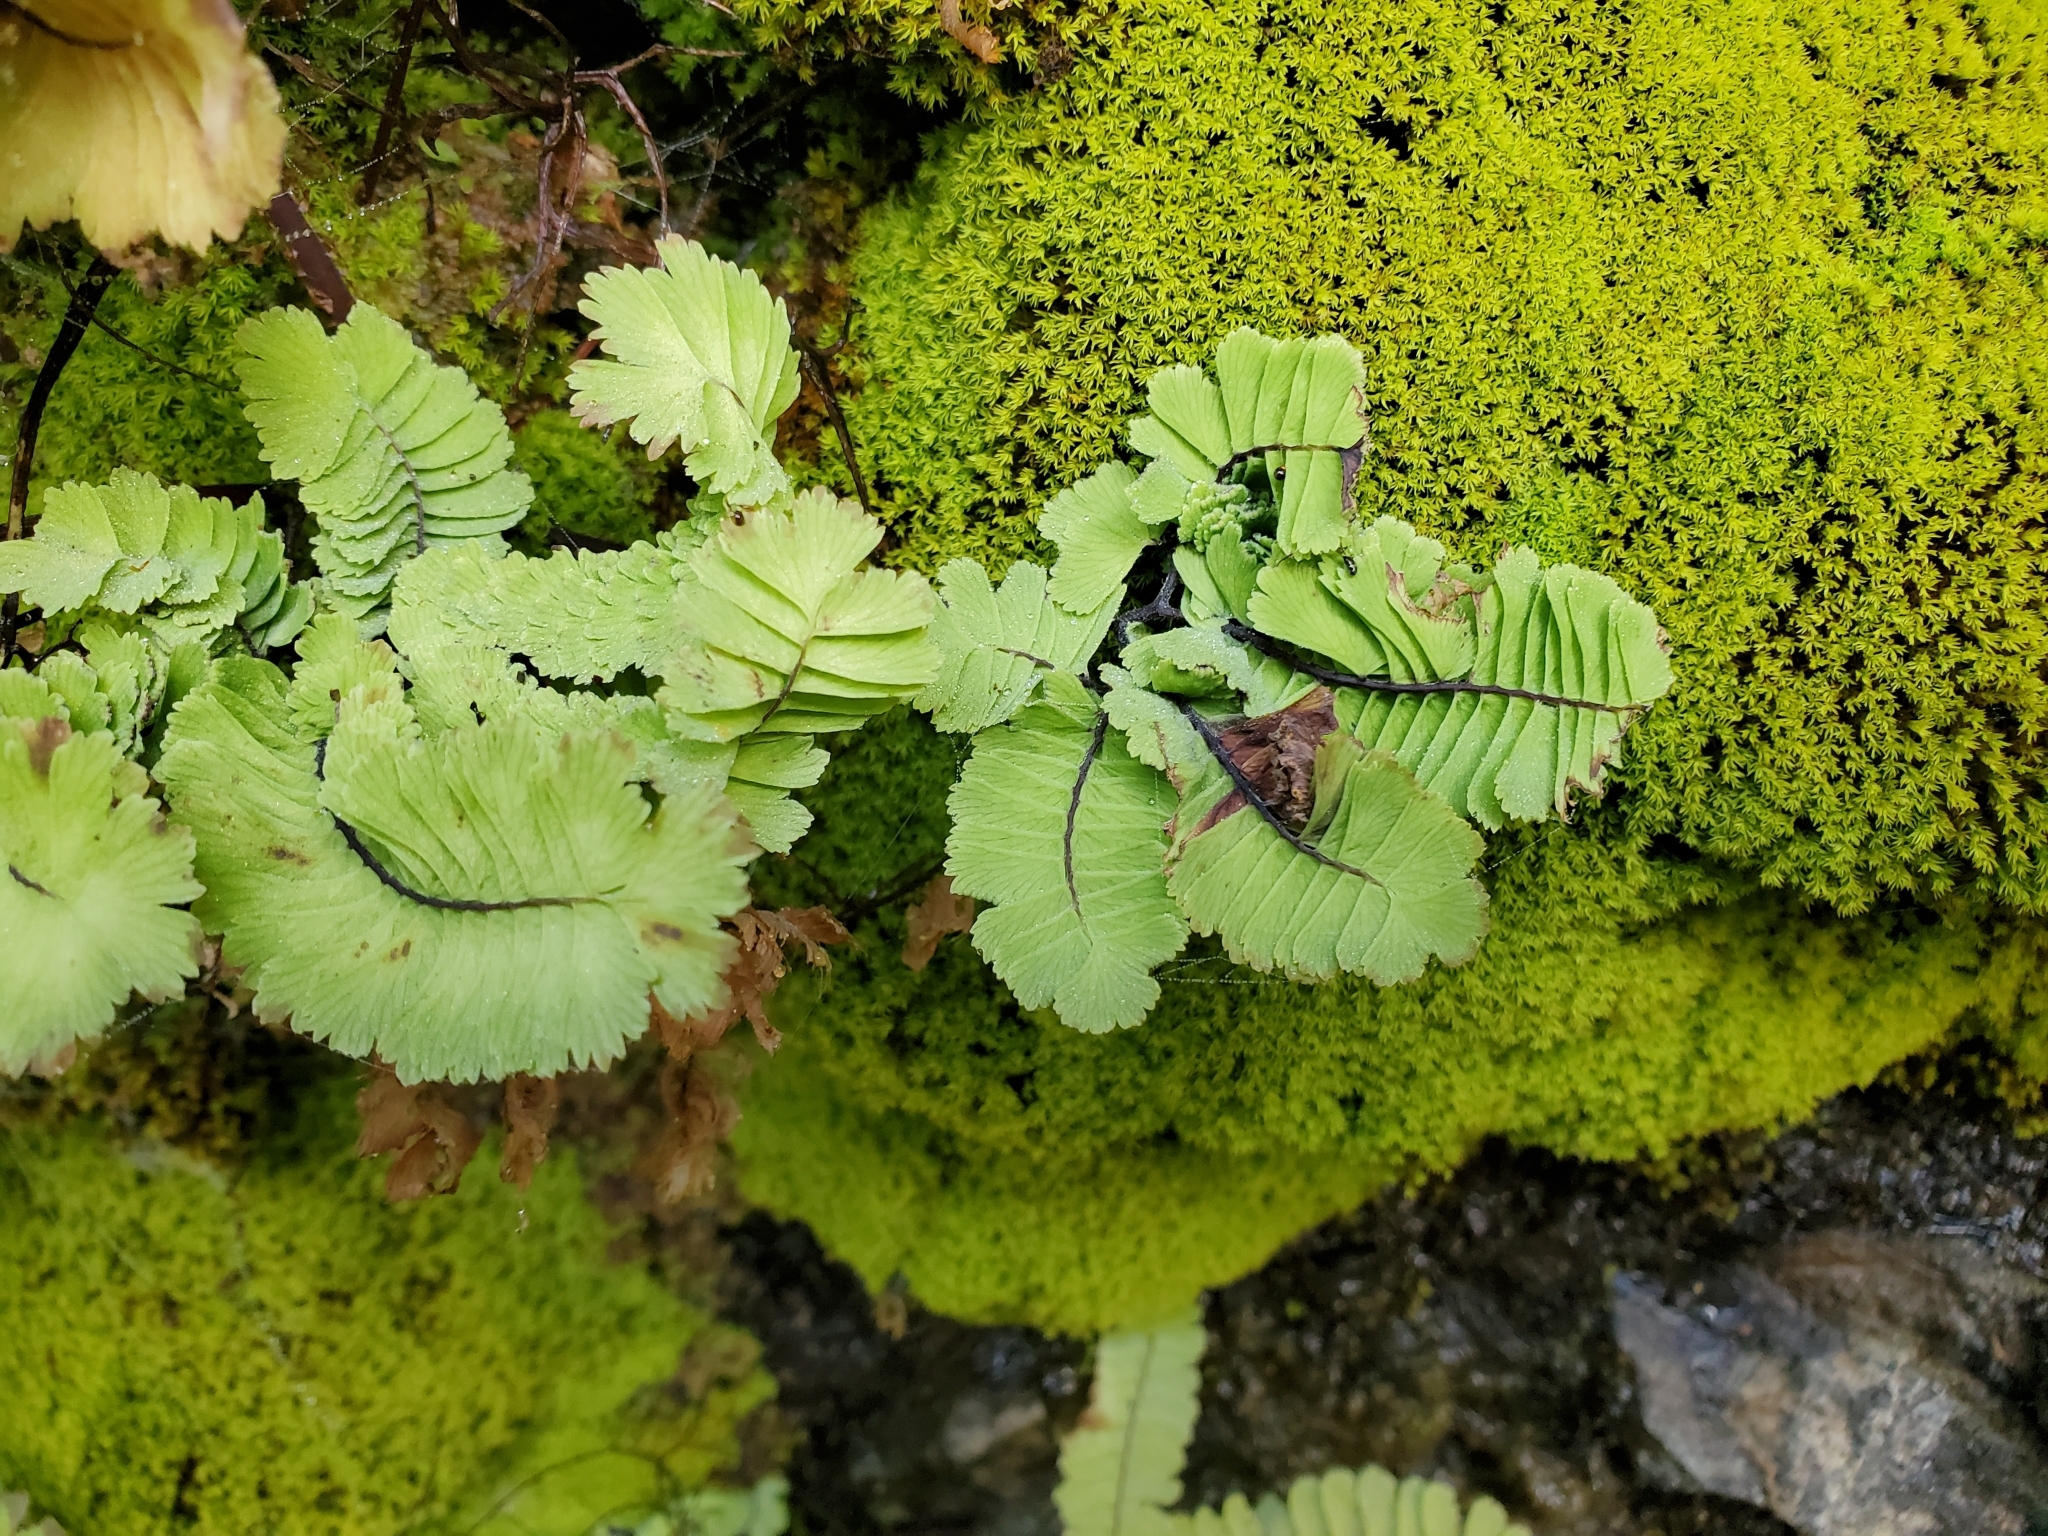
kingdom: Plantae
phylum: Tracheophyta
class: Polypodiopsida
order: Polypodiales
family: Pteridaceae
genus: Adiantum
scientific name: Adiantum aleuticum
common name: Aleutian maidenhair fern
